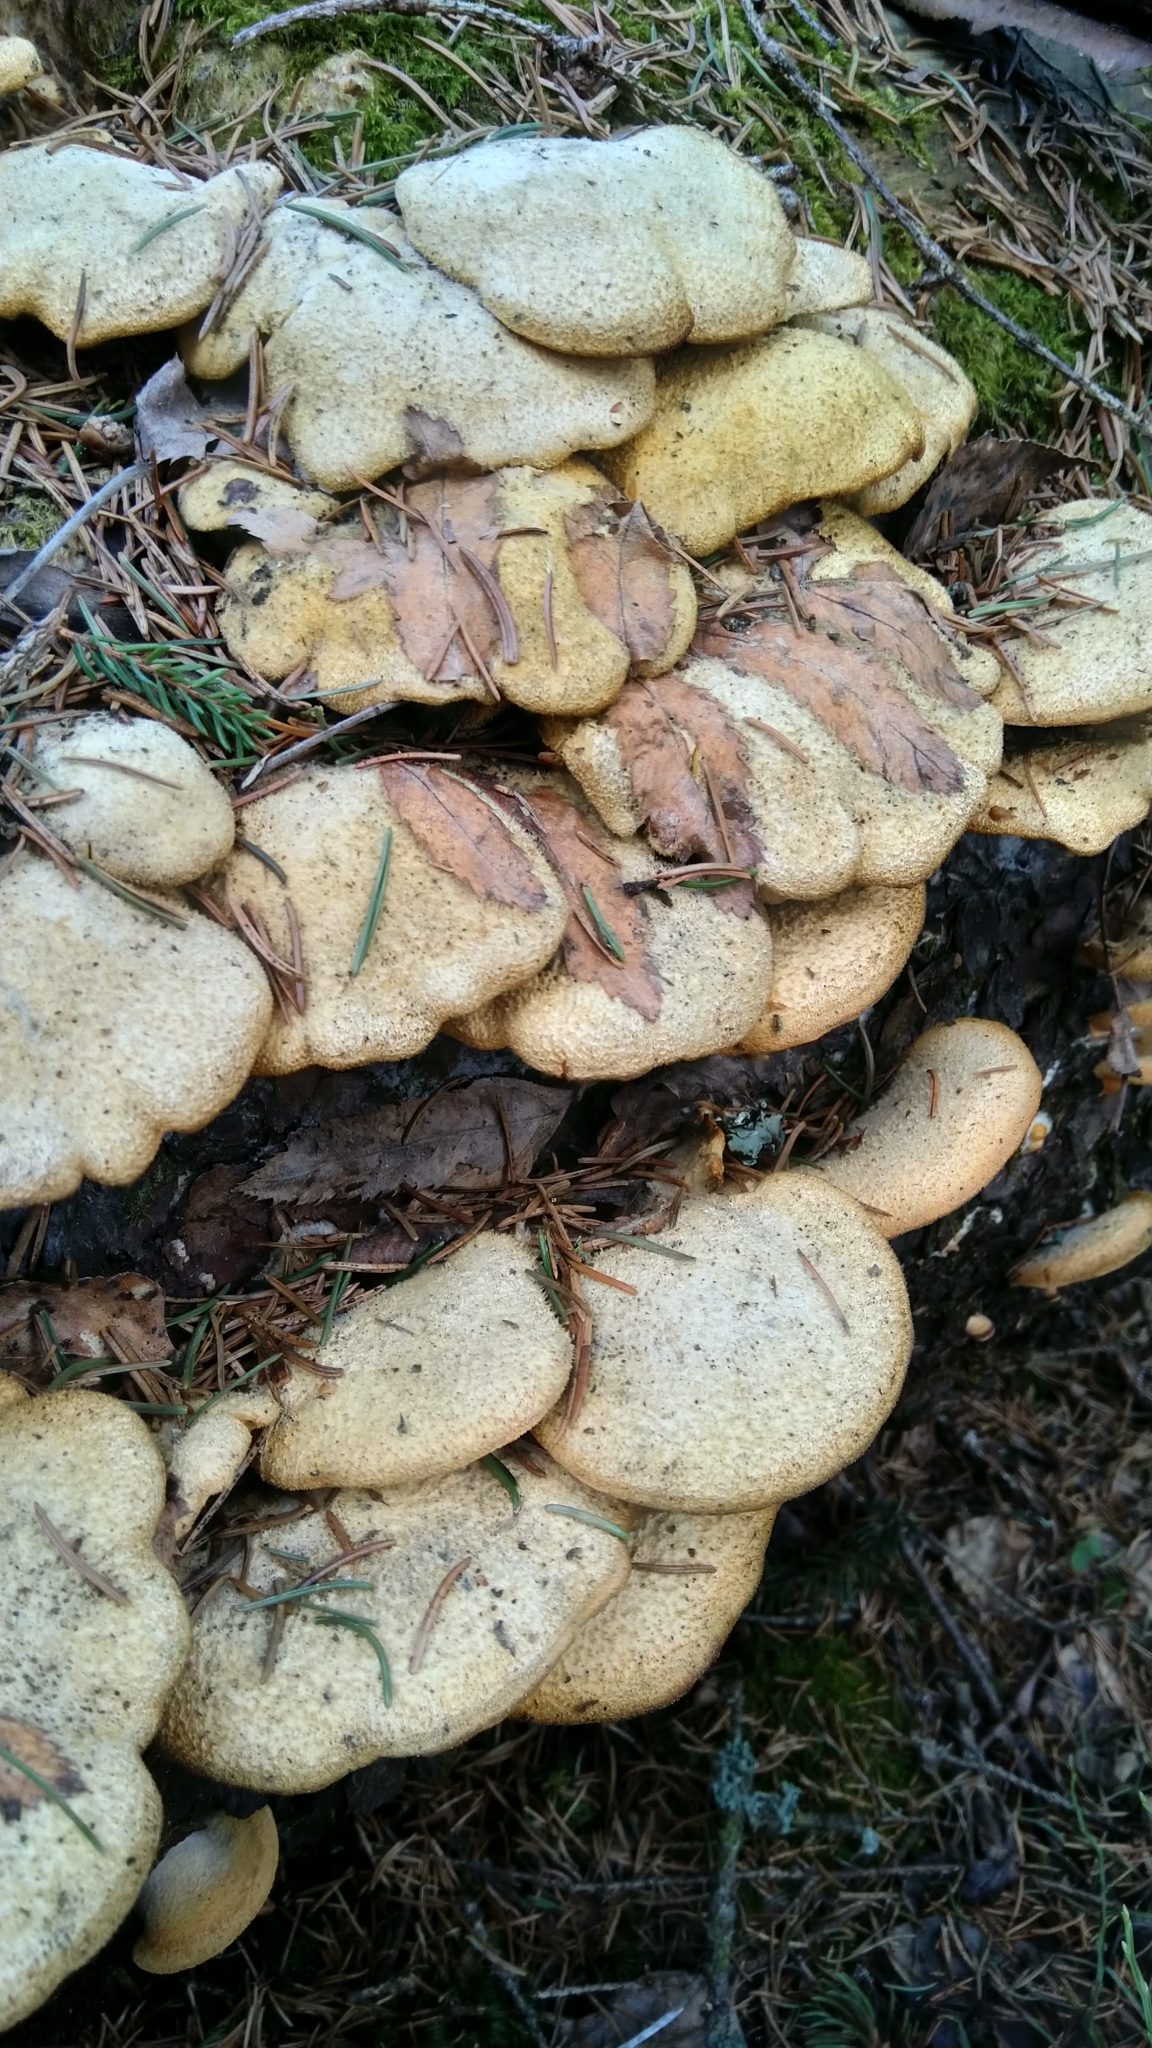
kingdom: Fungi
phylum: Basidiomycota
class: Agaricomycetes
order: Agaricales
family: Phyllotopsidaceae
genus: Phyllotopsis
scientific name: Phyllotopsis nidulans
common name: Orange mock oyster
